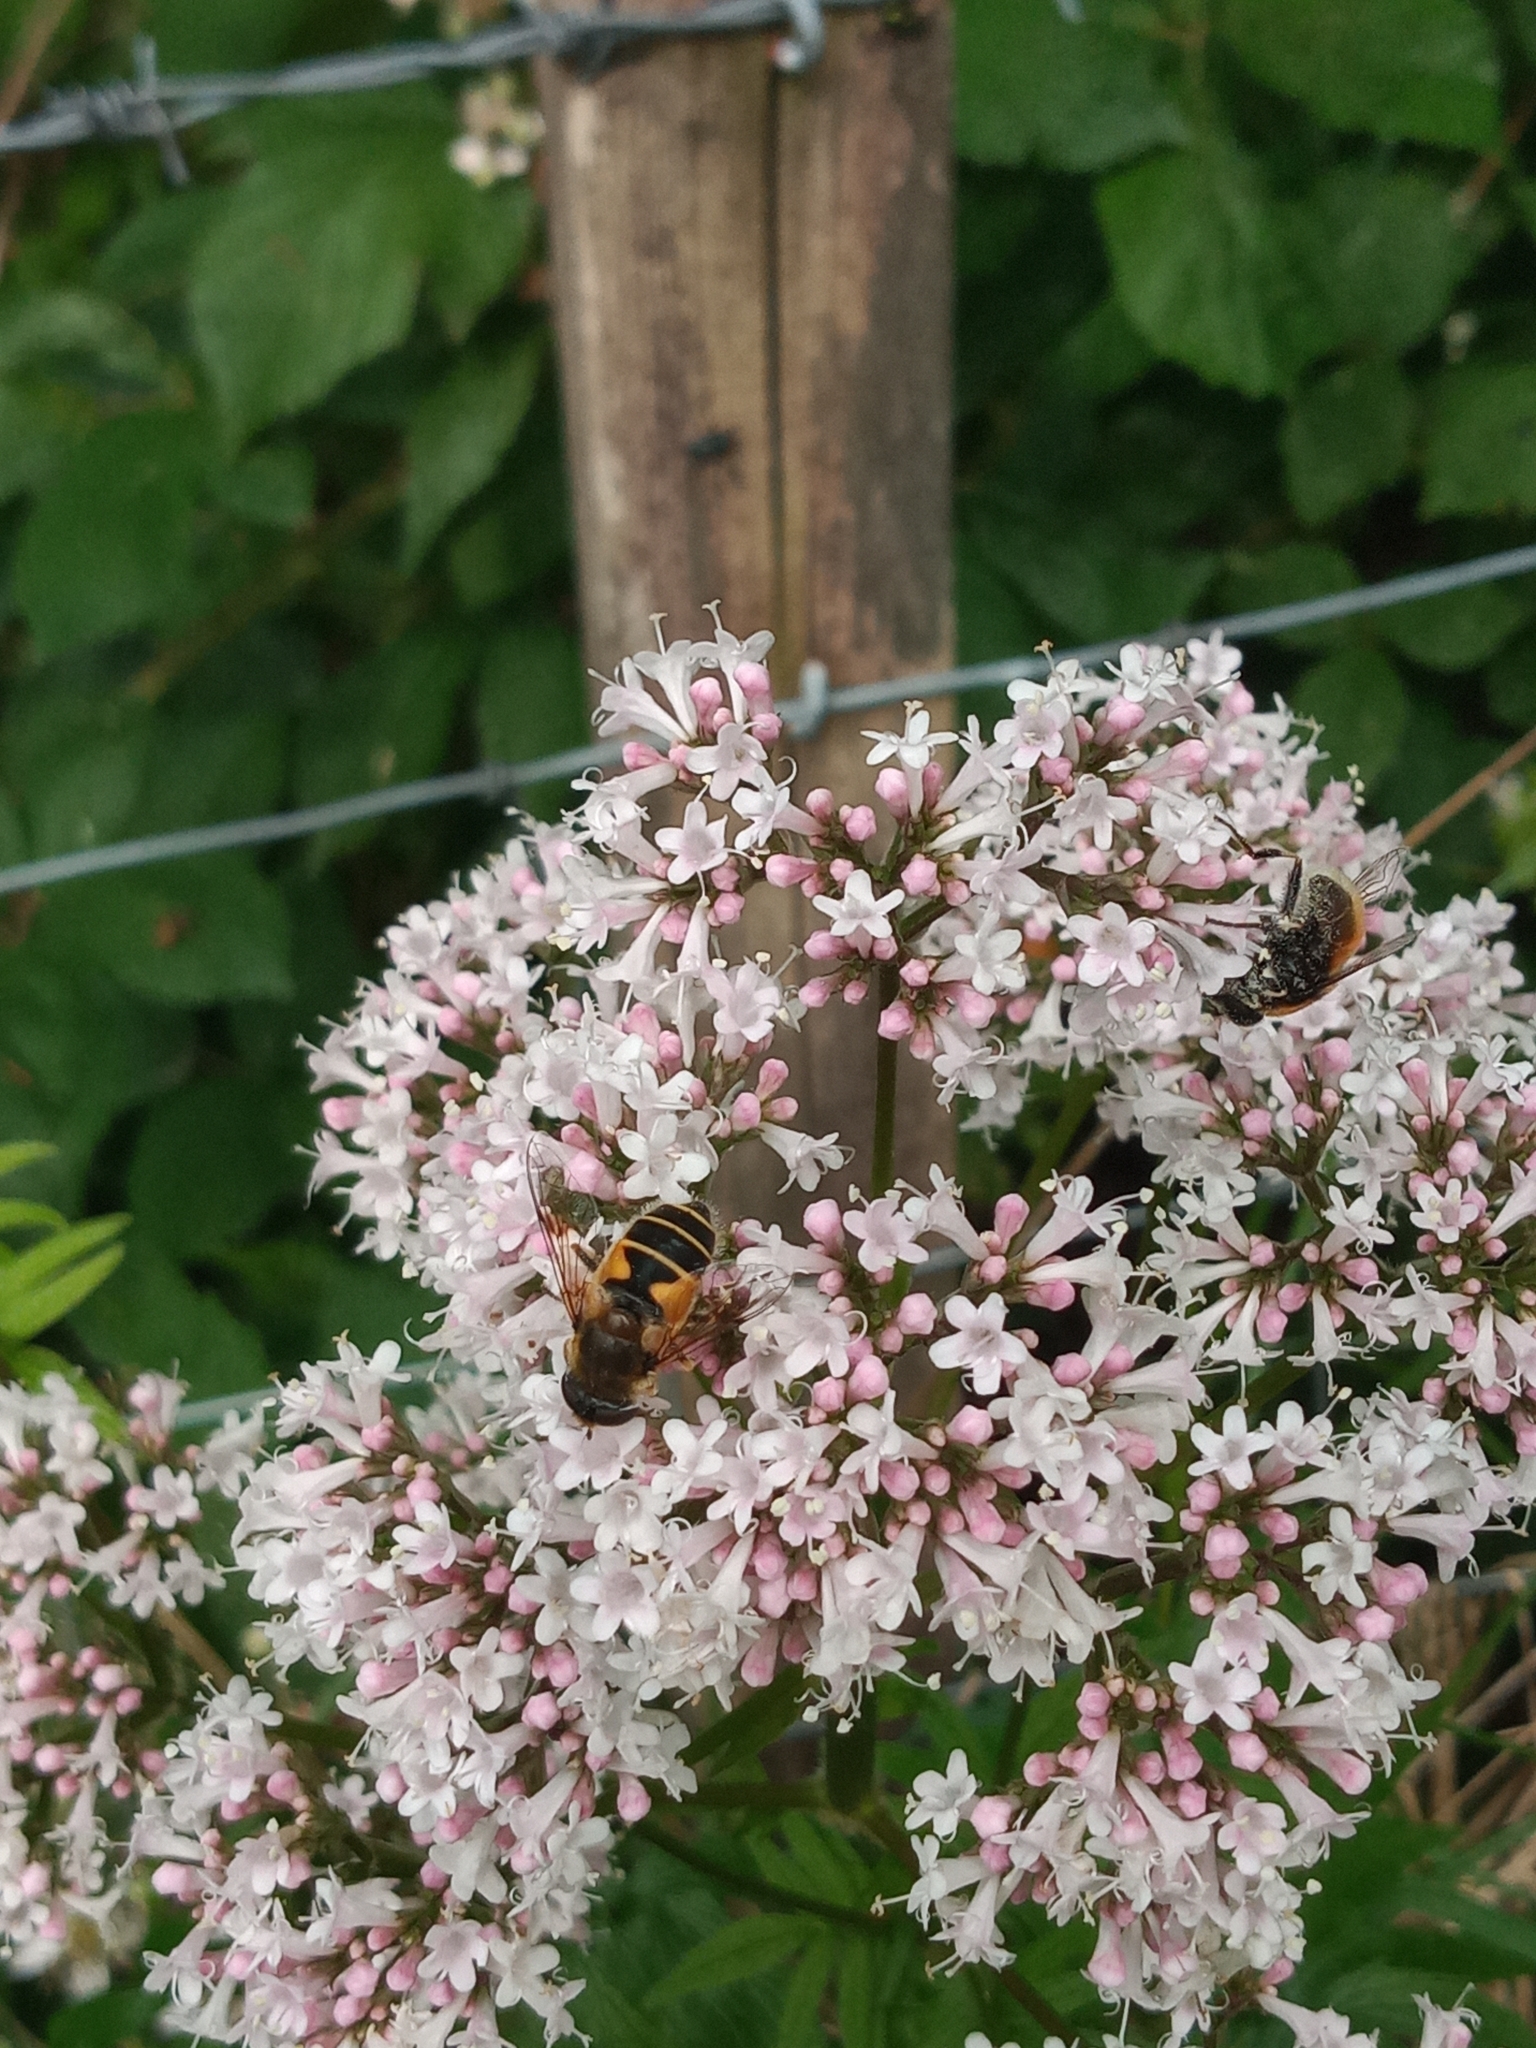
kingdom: Animalia
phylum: Arthropoda
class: Insecta
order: Diptera
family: Syrphidae
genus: Cheilosia
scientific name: Cheilosia morio
